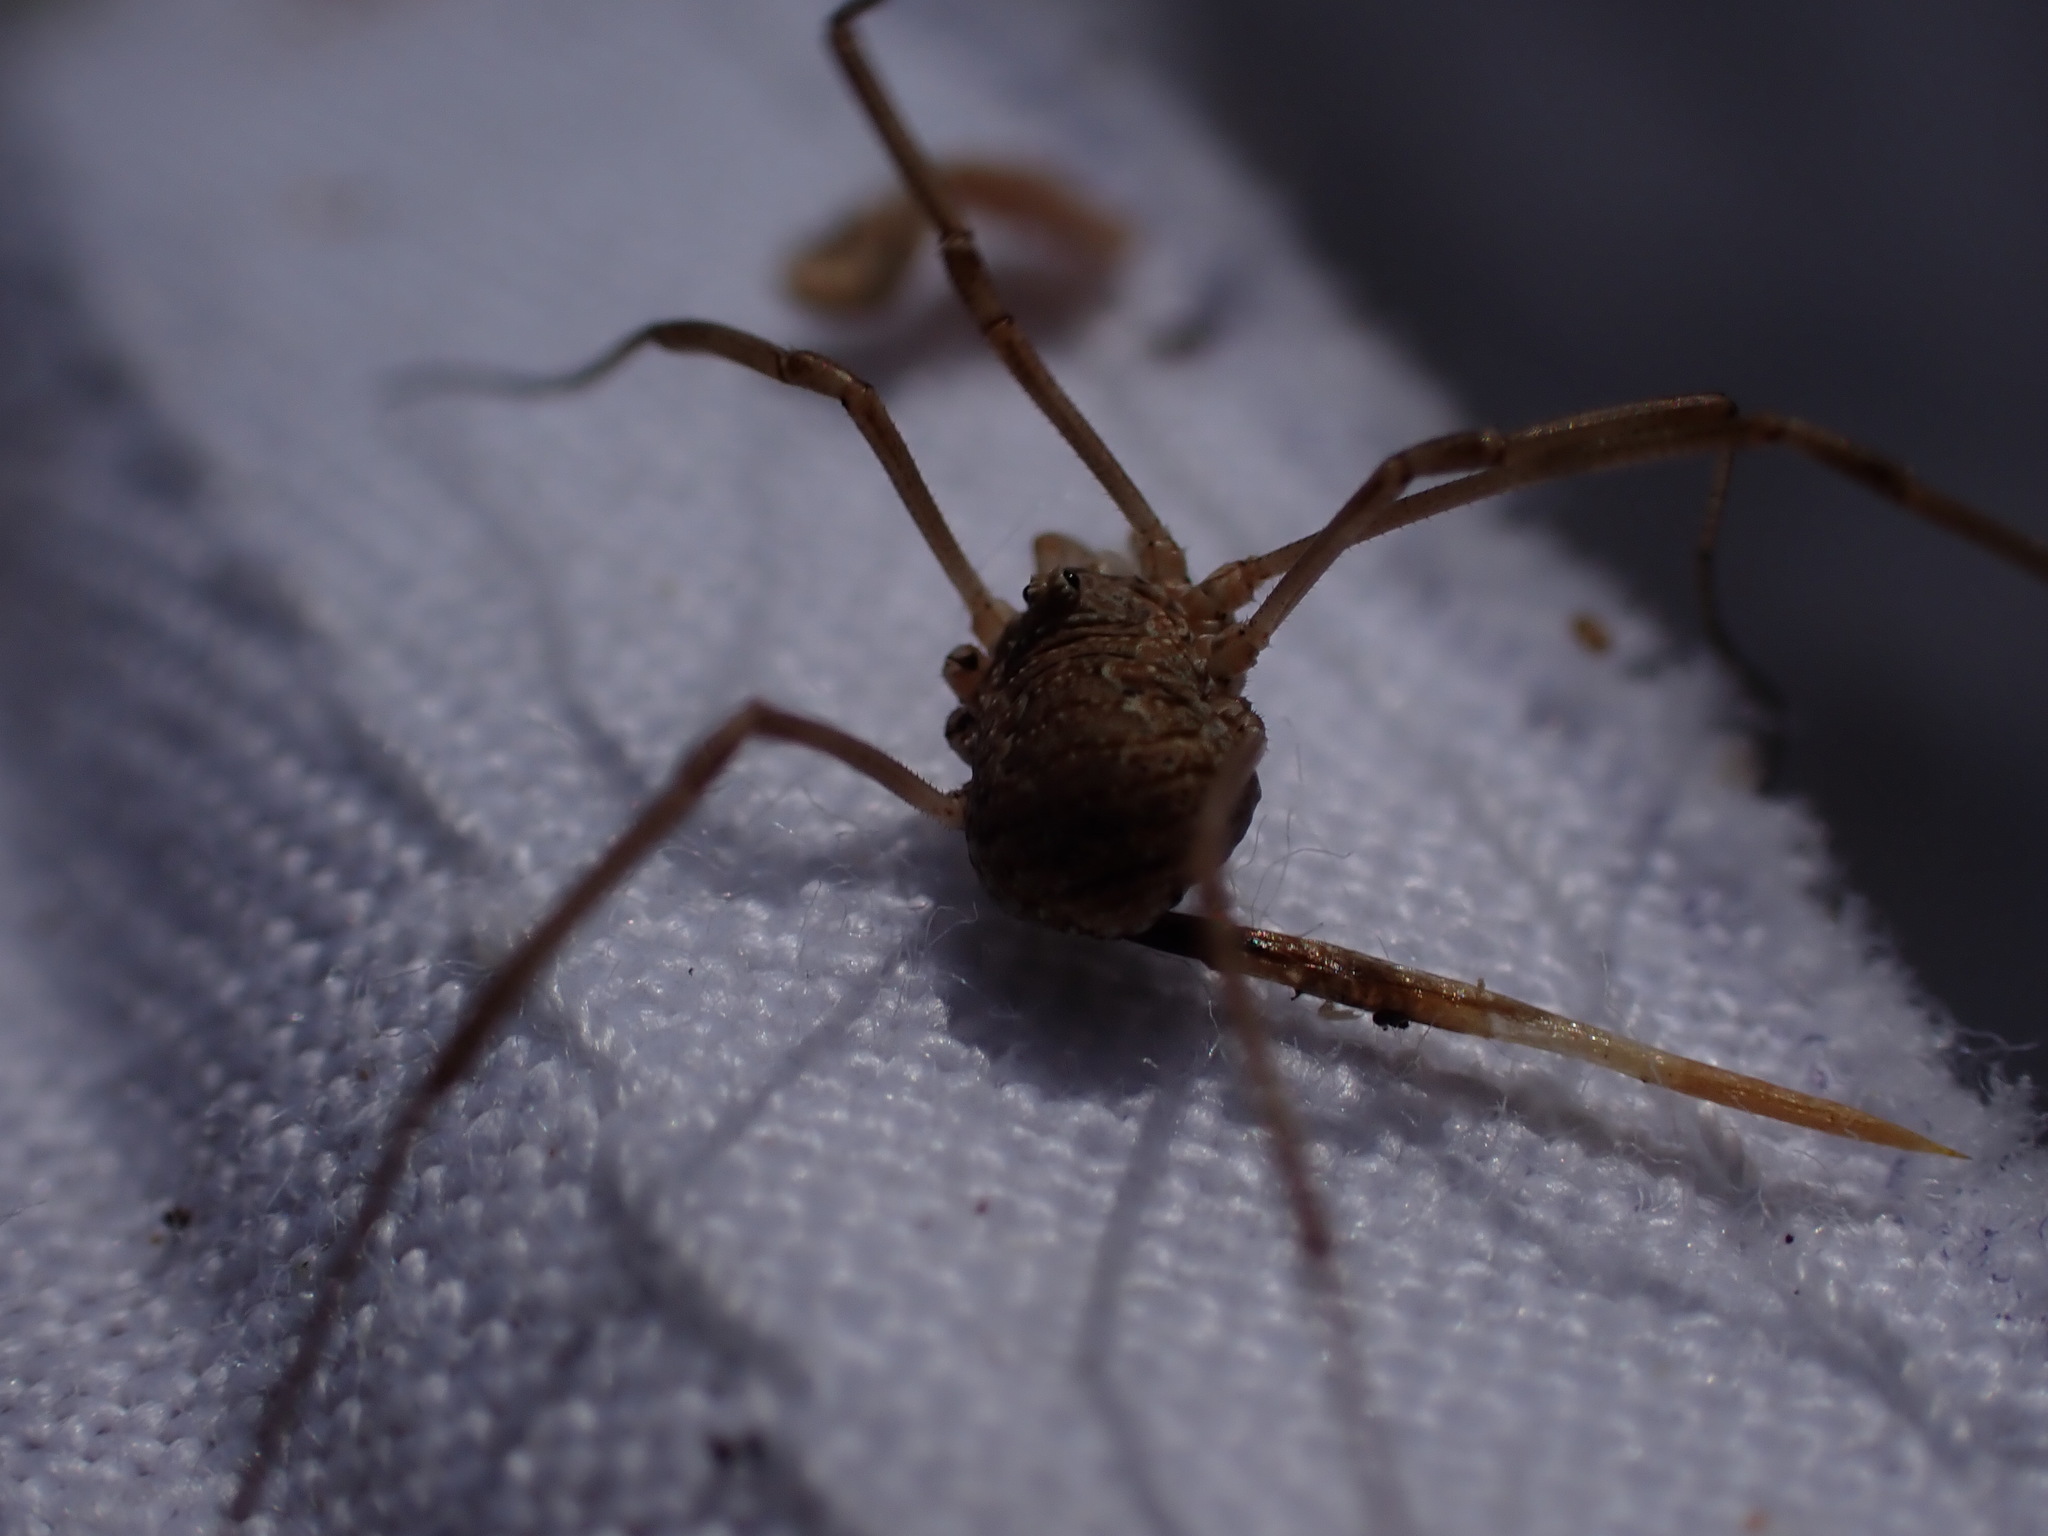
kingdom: Animalia
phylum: Arthropoda
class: Arachnida
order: Opiliones
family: Phalangiidae
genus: Phalangium
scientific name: Phalangium opilio
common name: Daddy longleg
